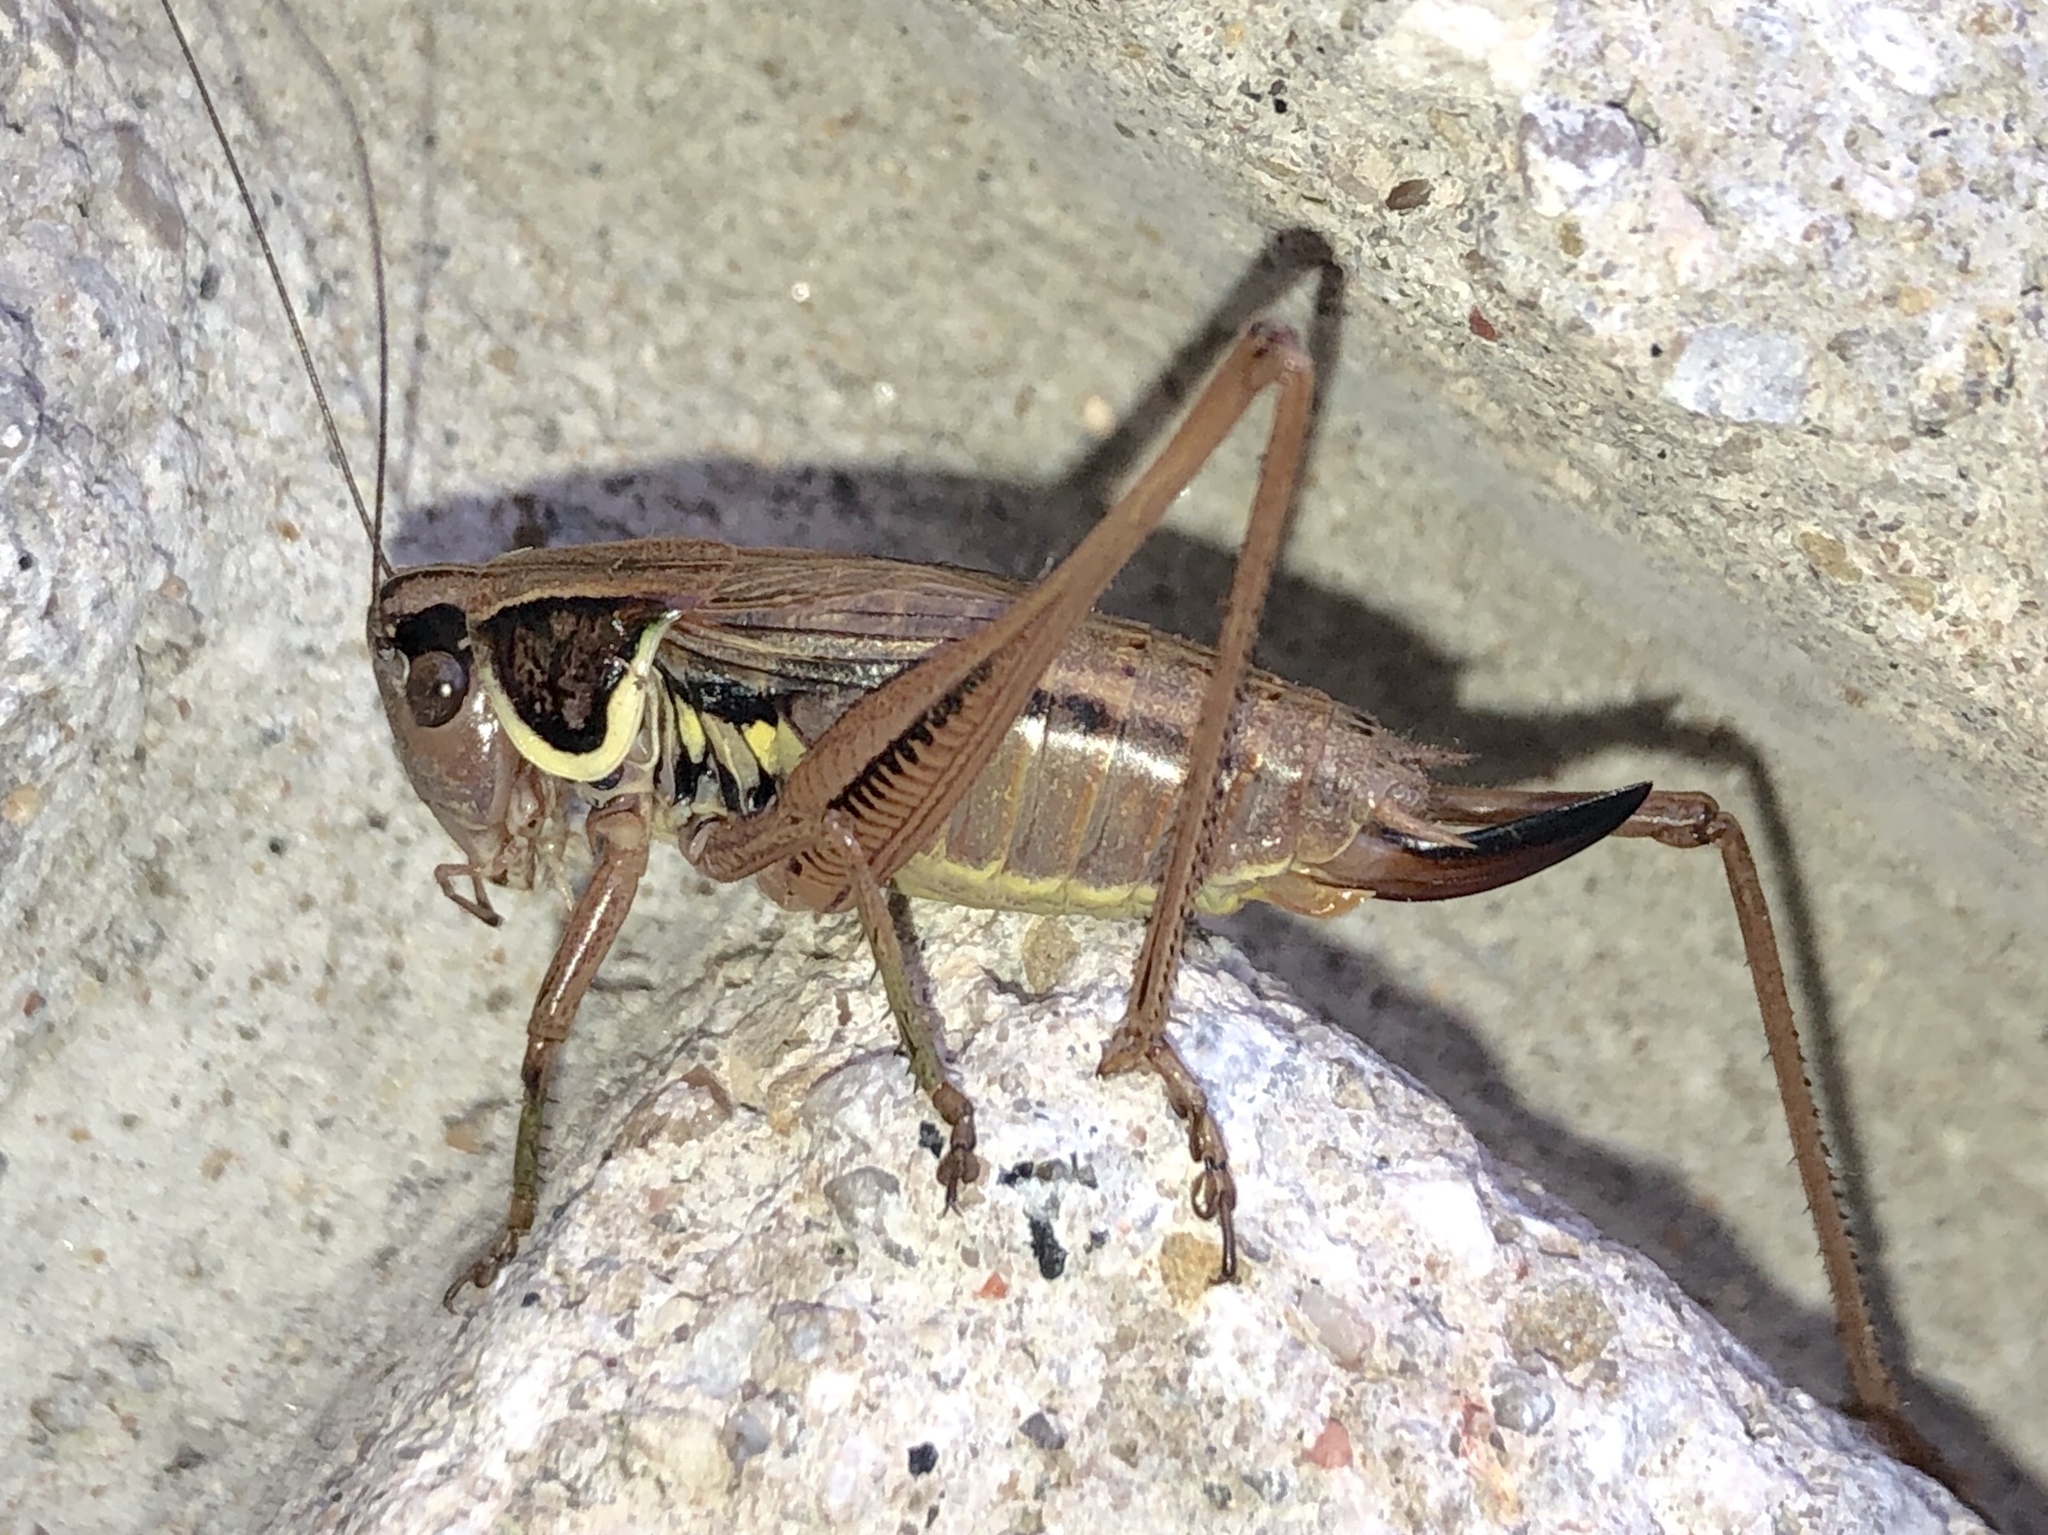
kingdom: Animalia
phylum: Arthropoda
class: Insecta
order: Orthoptera
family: Tettigoniidae
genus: Roeseliana
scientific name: Roeseliana roeselii
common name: Roesel's bush cricket
